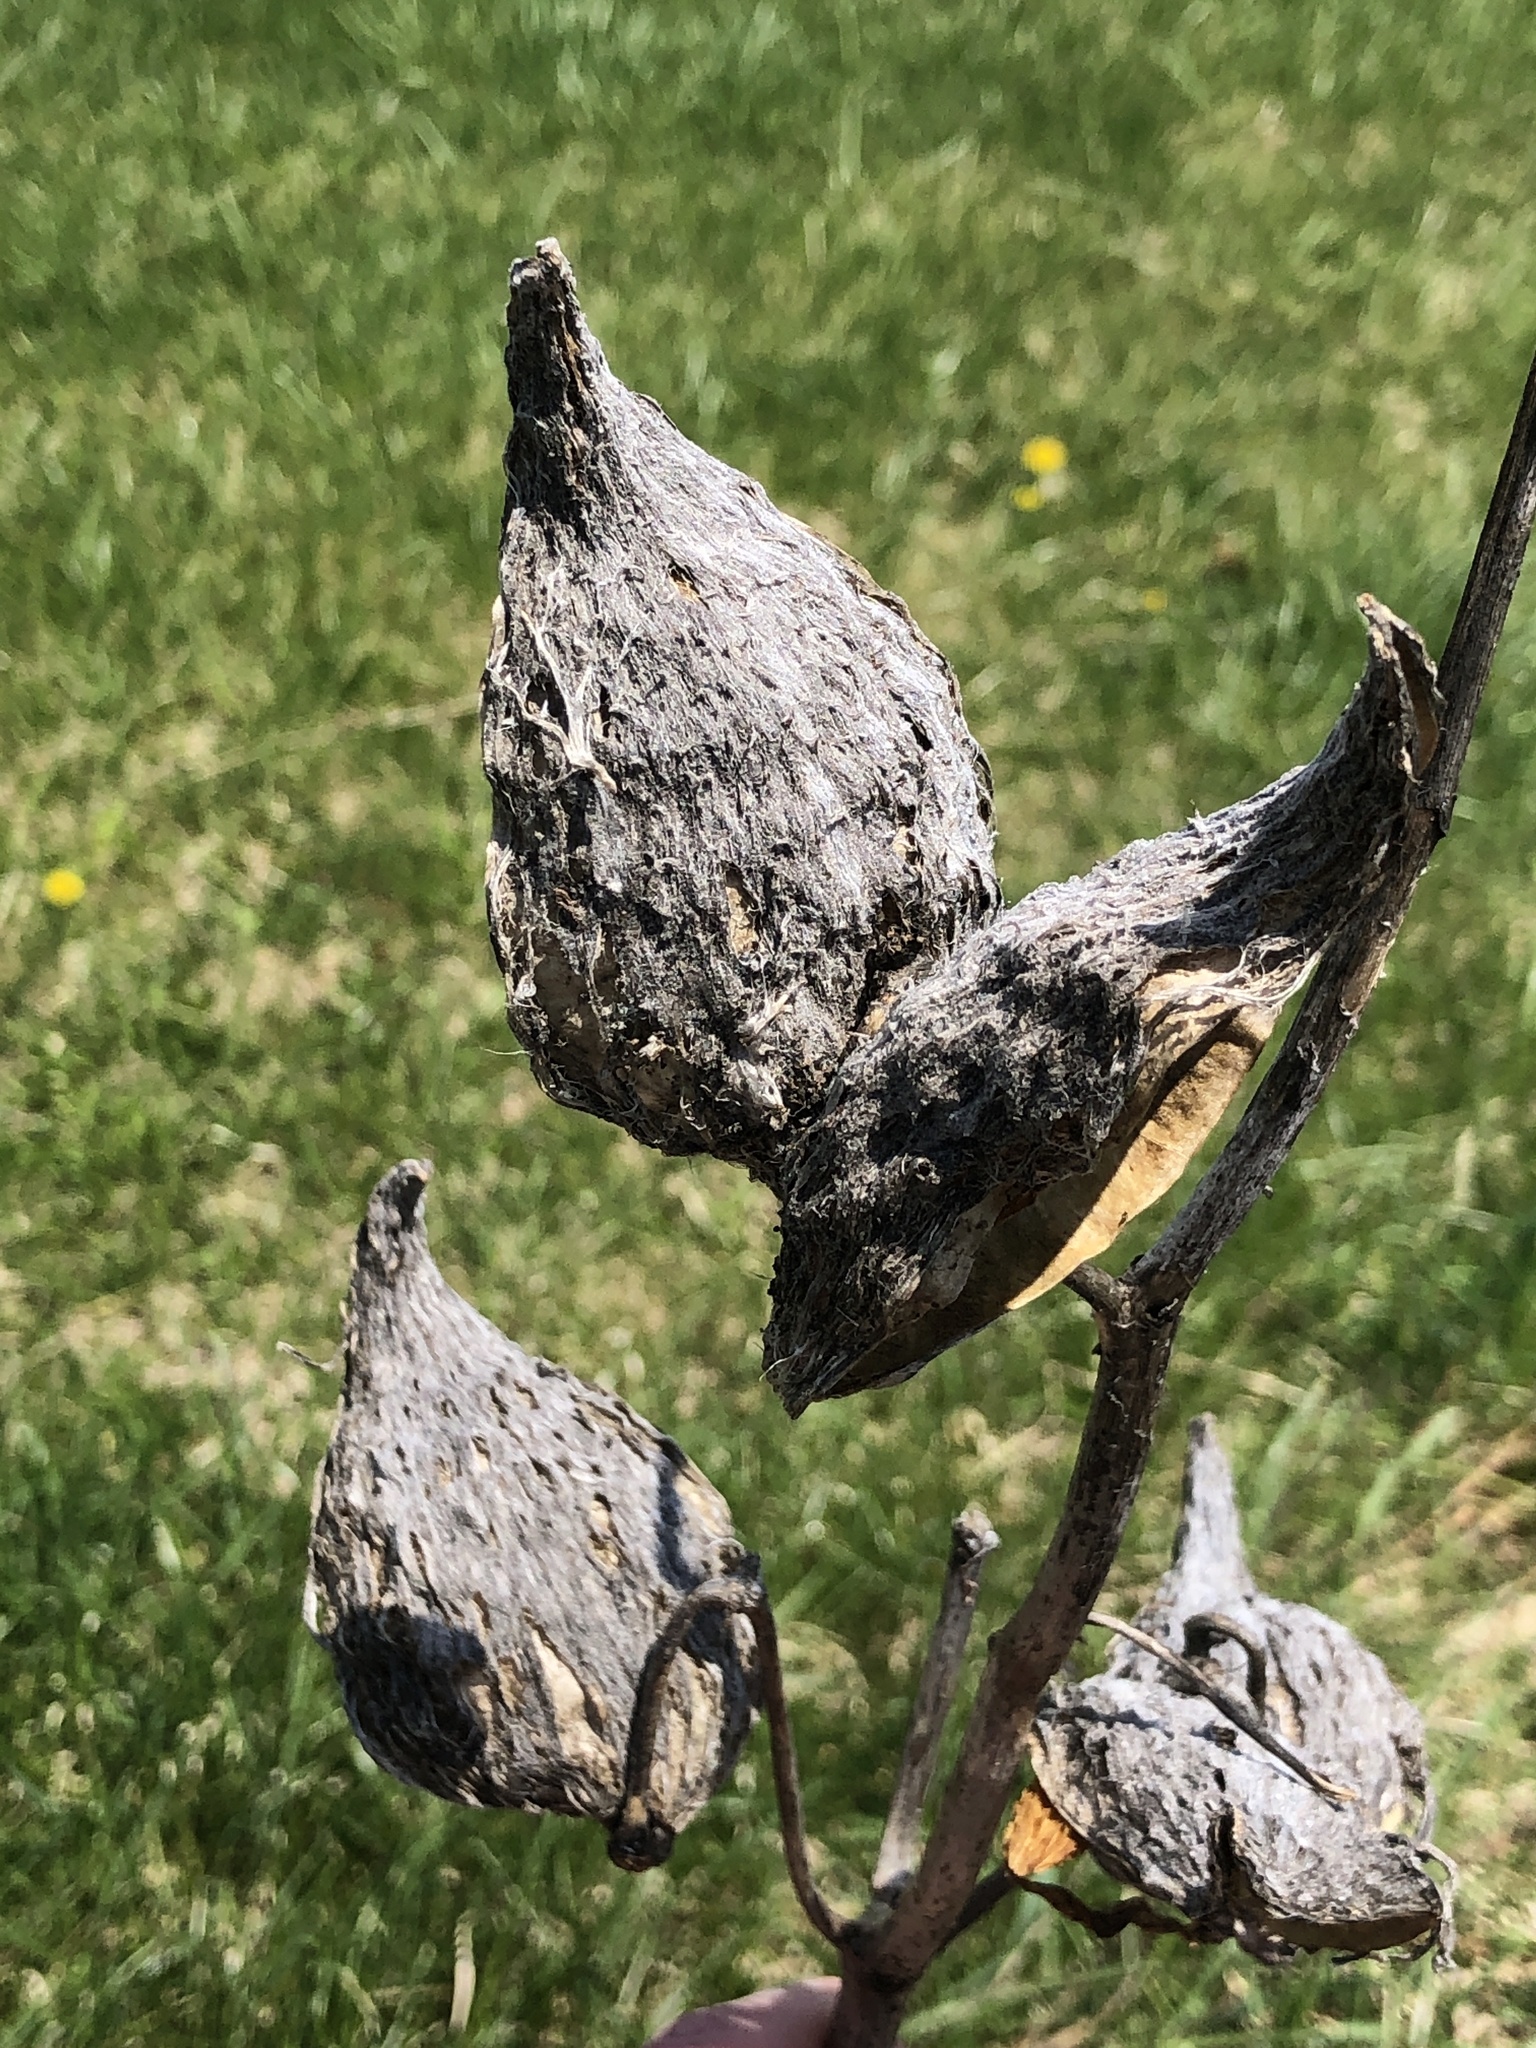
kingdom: Plantae
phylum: Tracheophyta
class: Magnoliopsida
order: Gentianales
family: Apocynaceae
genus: Asclepias
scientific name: Asclepias syriaca
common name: Common milkweed
